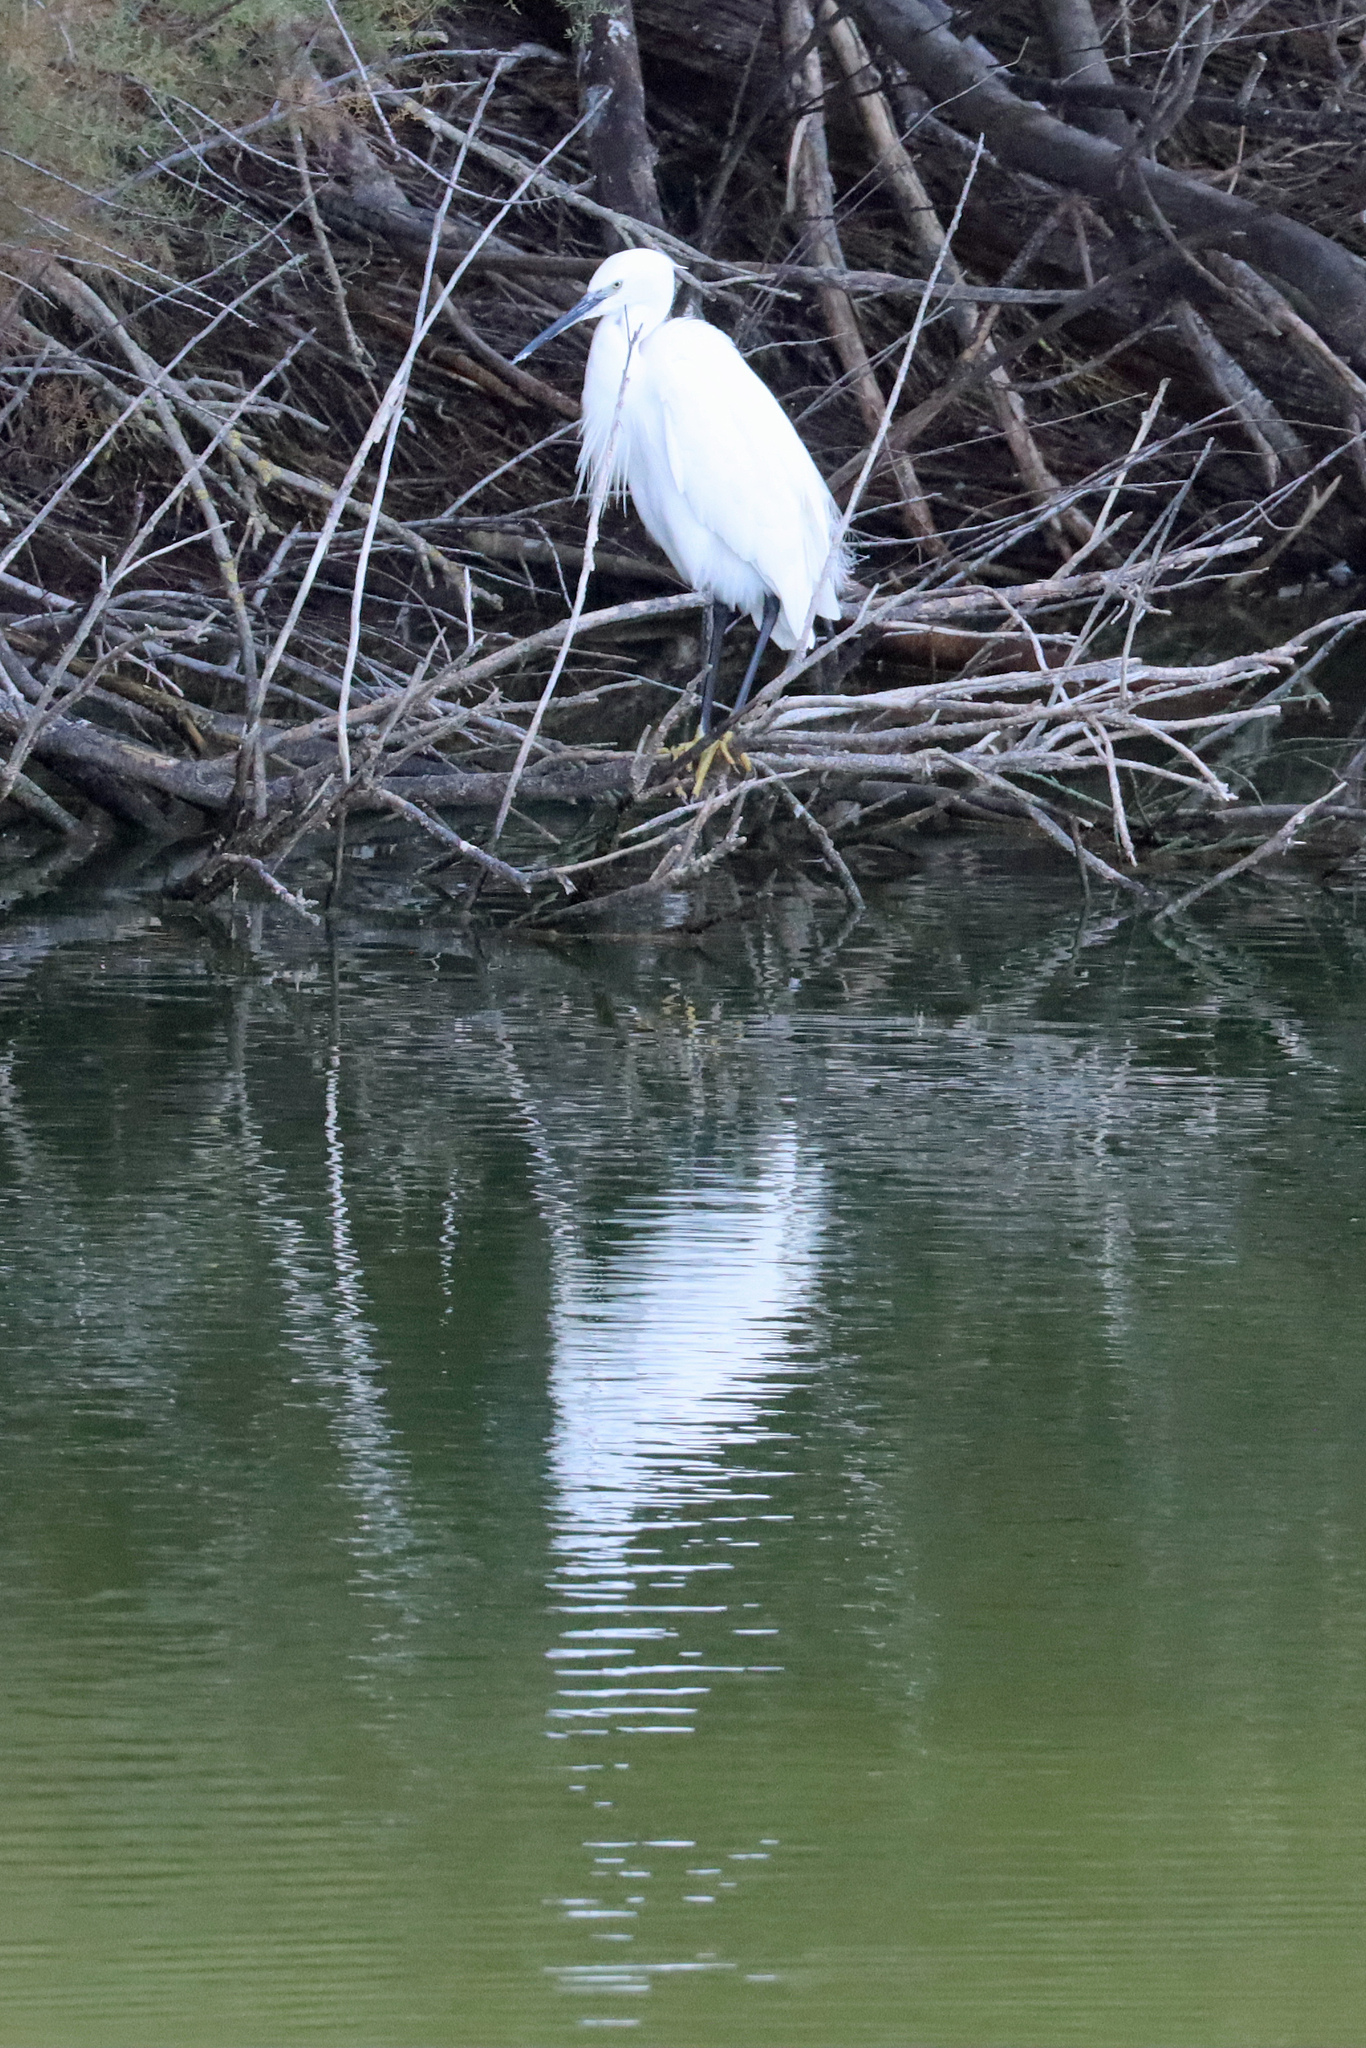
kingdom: Animalia
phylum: Chordata
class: Aves
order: Pelecaniformes
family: Ardeidae
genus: Egretta
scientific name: Egretta garzetta
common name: Little egret
